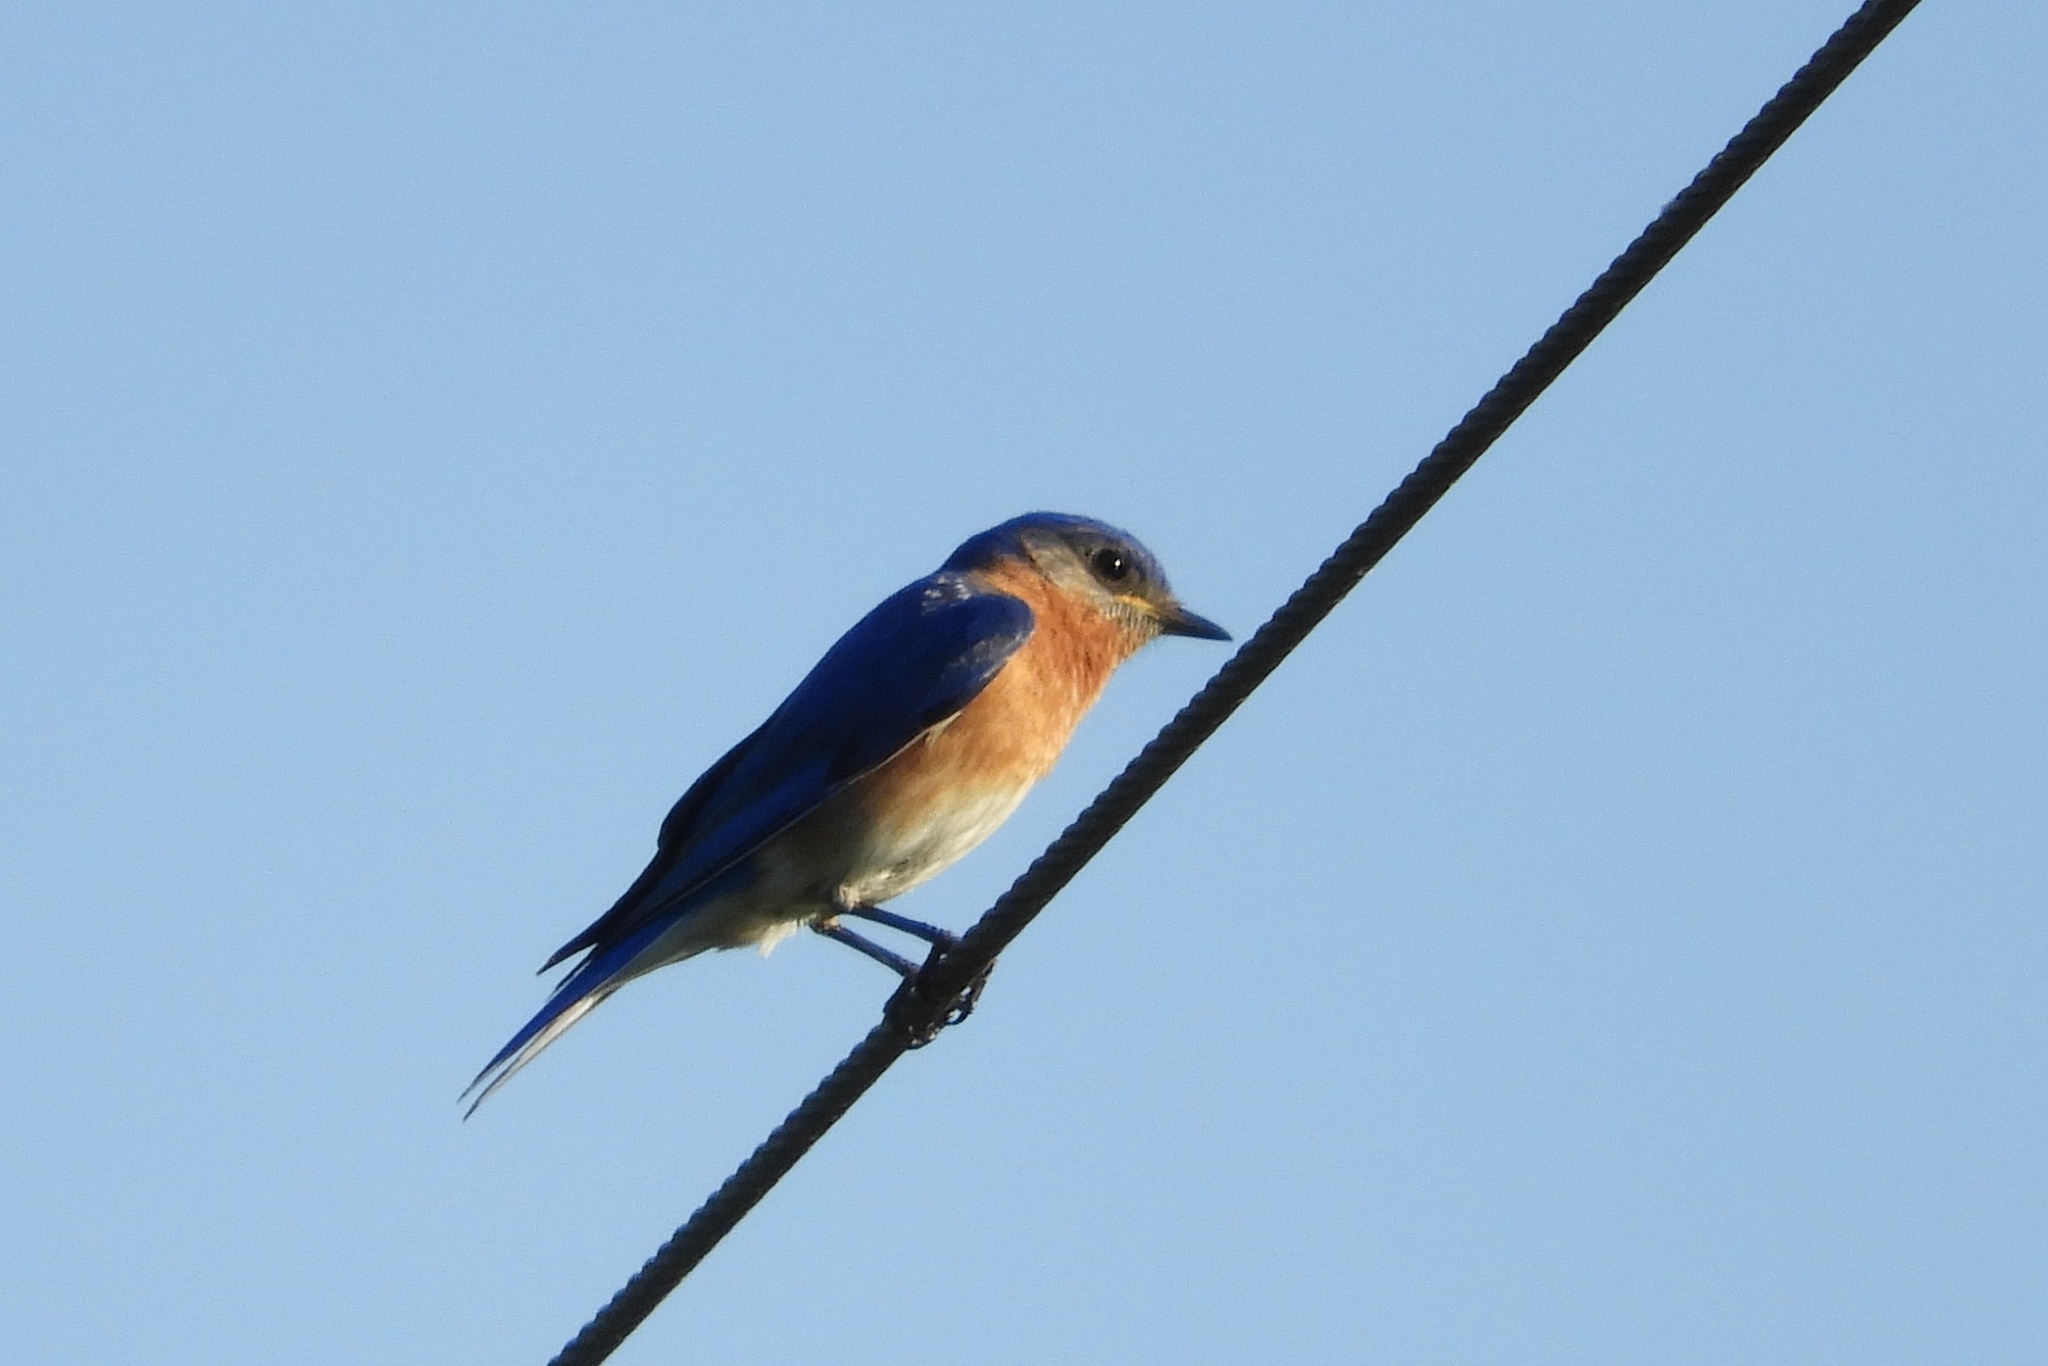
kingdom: Animalia
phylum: Chordata
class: Aves
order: Passeriformes
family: Turdidae
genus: Sialia
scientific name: Sialia sialis
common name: Eastern bluebird
